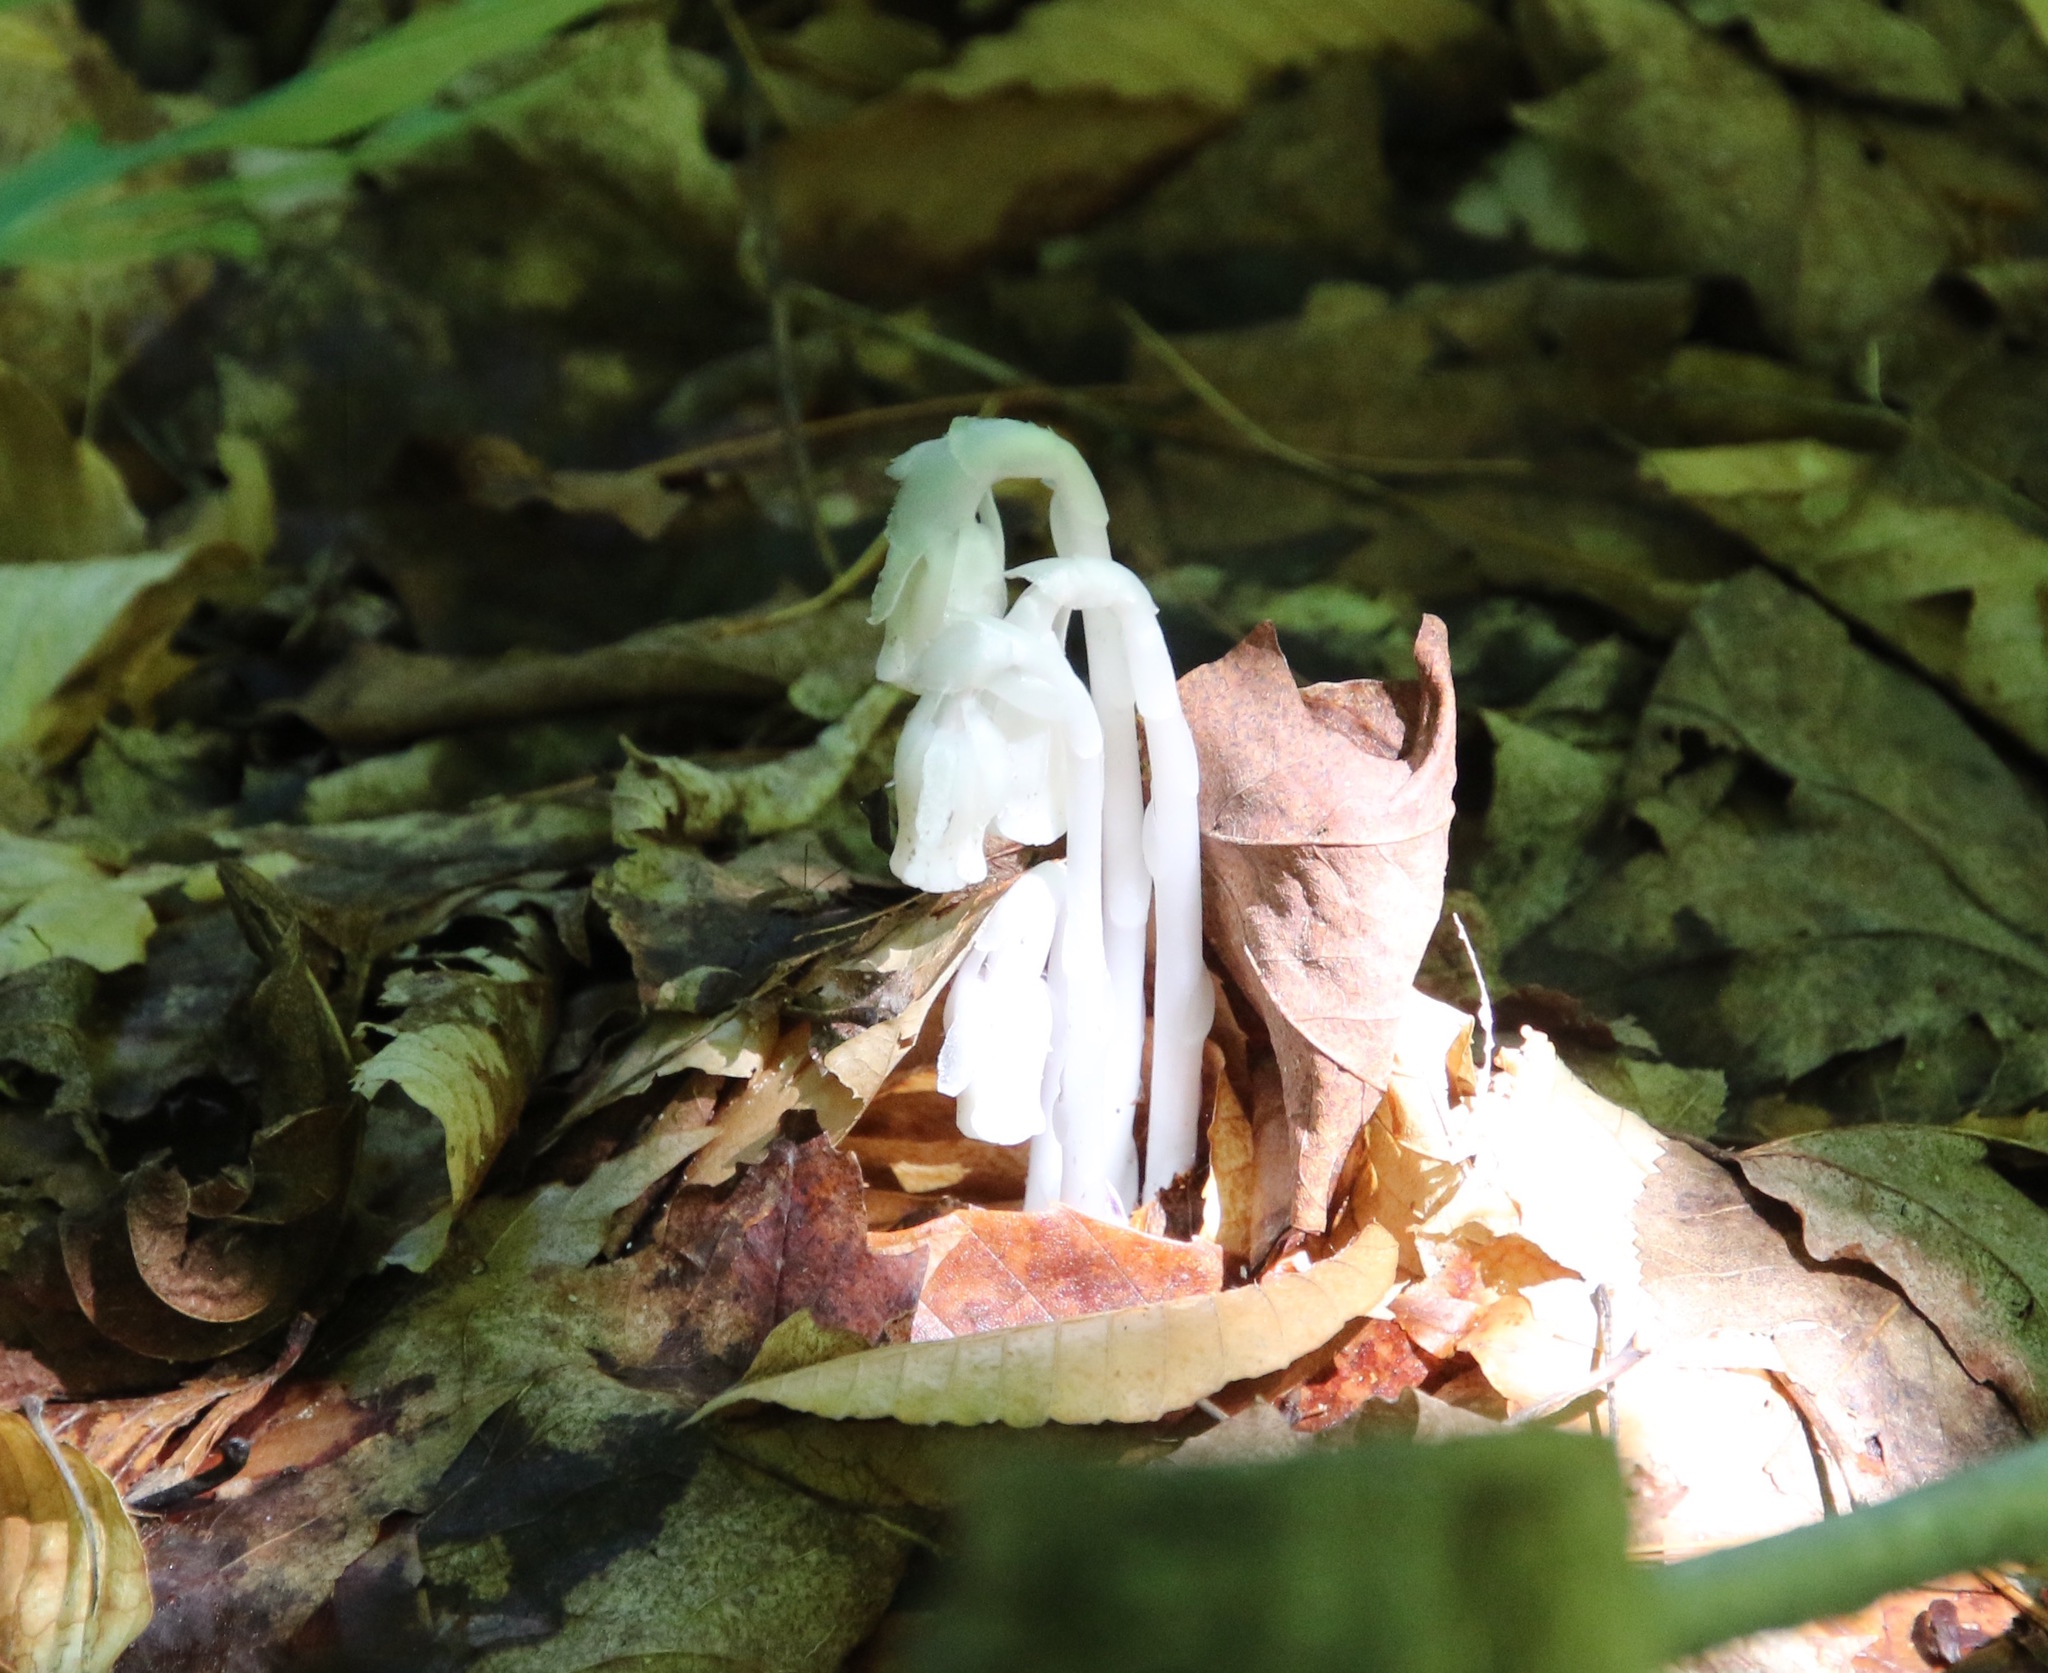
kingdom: Plantae
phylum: Tracheophyta
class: Magnoliopsida
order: Ericales
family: Ericaceae
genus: Monotropa
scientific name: Monotropa uniflora
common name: Convulsion root
